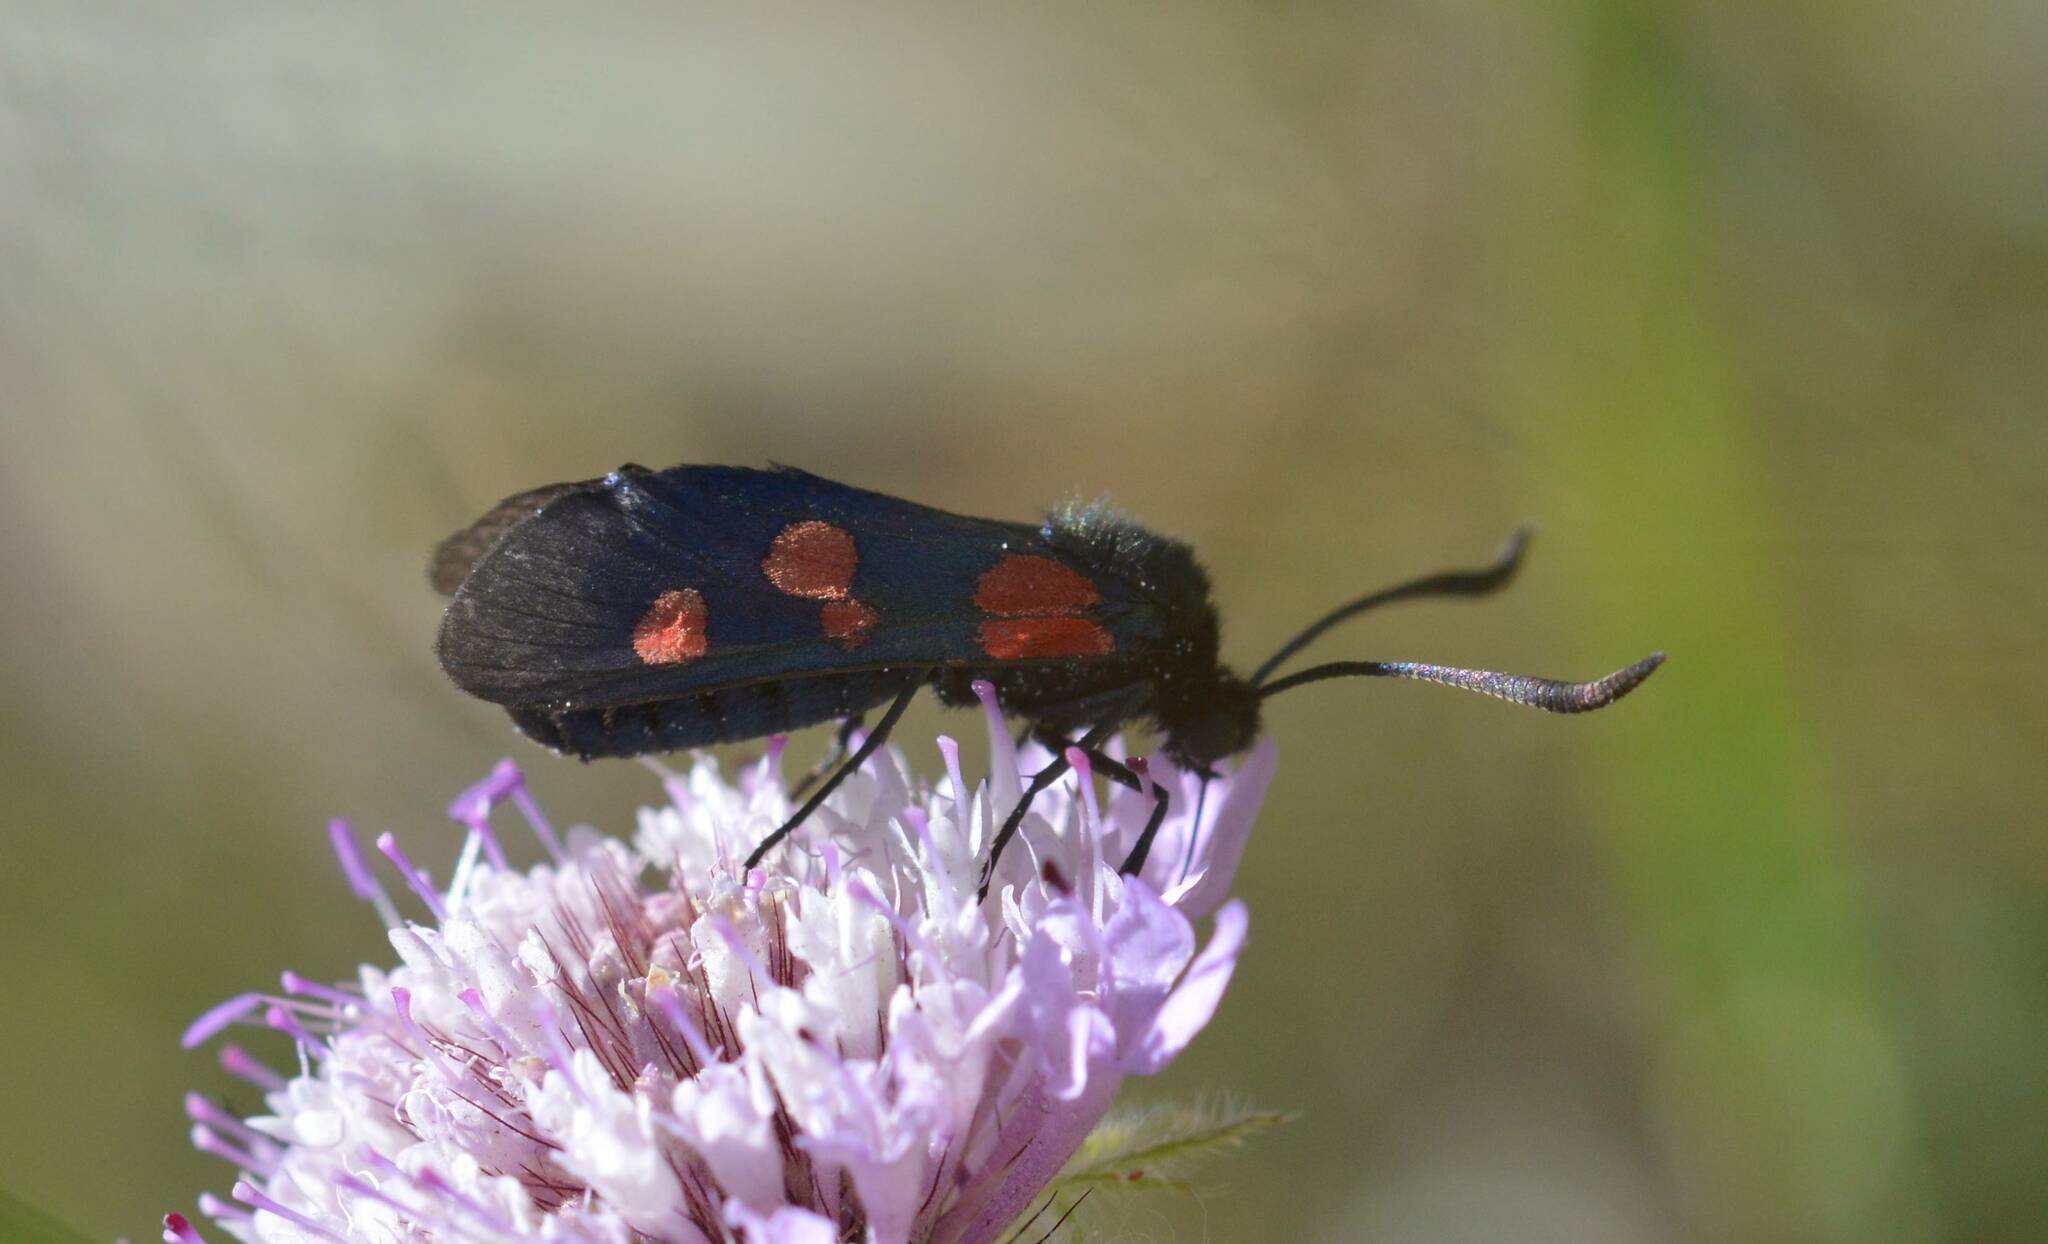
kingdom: Animalia
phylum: Arthropoda
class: Insecta
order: Lepidoptera
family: Zygaenidae
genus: Zygaena
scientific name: Zygaena trifolii
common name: Five-spot burnet
